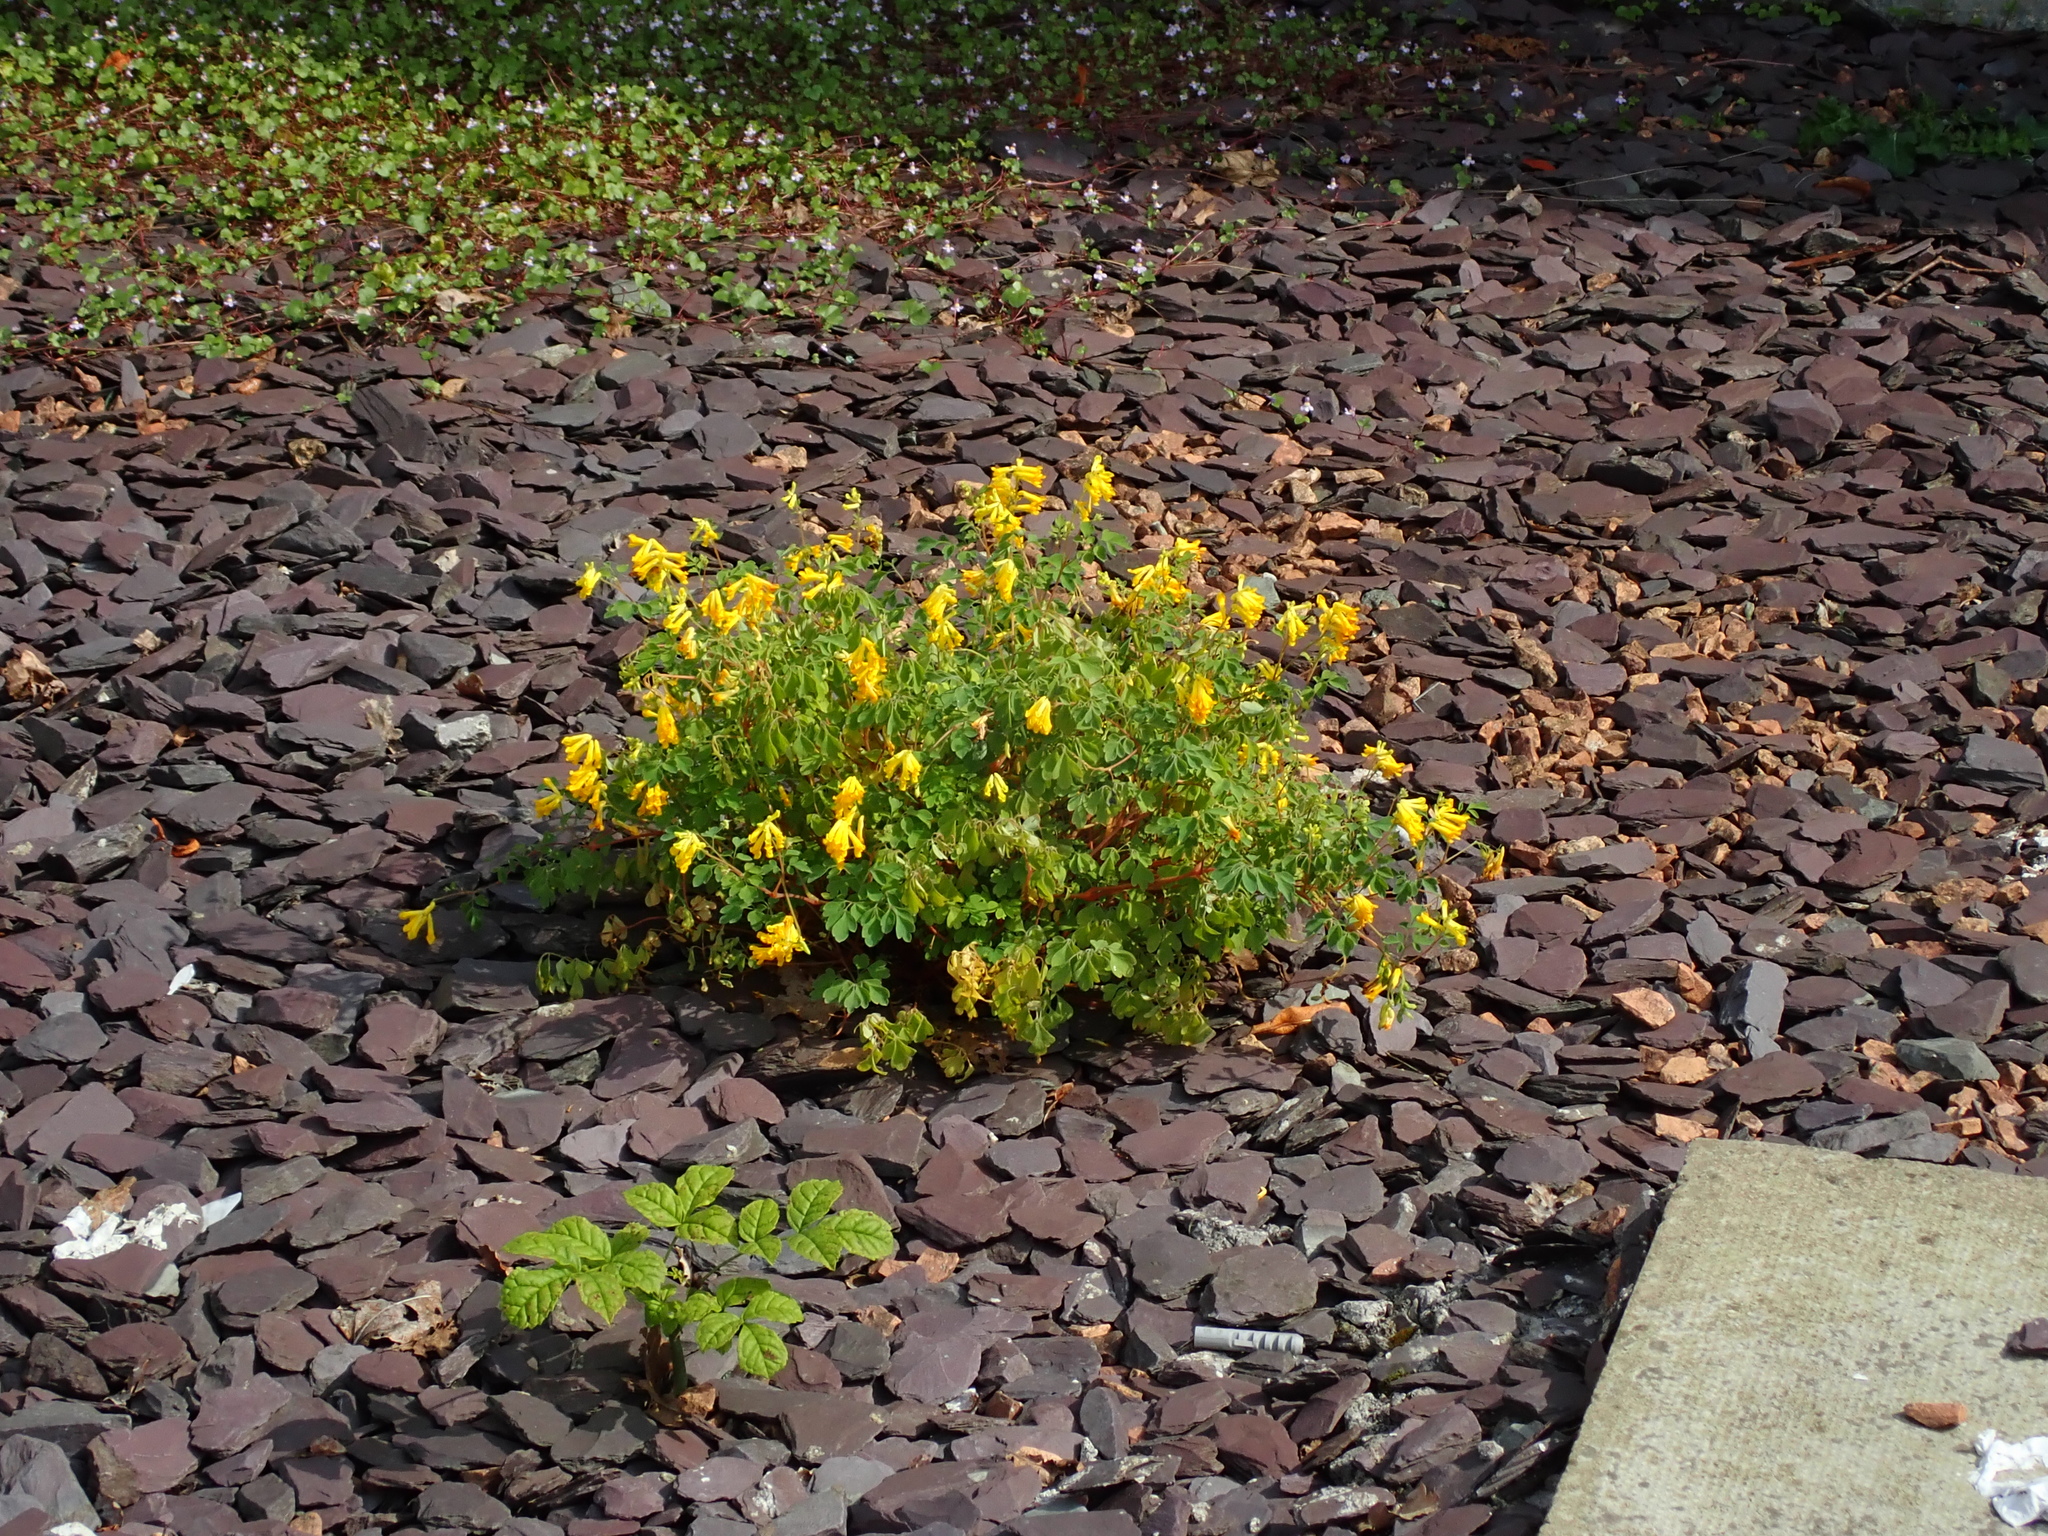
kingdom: Plantae
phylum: Tracheophyta
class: Magnoliopsida
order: Ranunculales
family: Papaveraceae
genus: Pseudofumaria
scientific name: Pseudofumaria lutea
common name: Yellow corydalis
